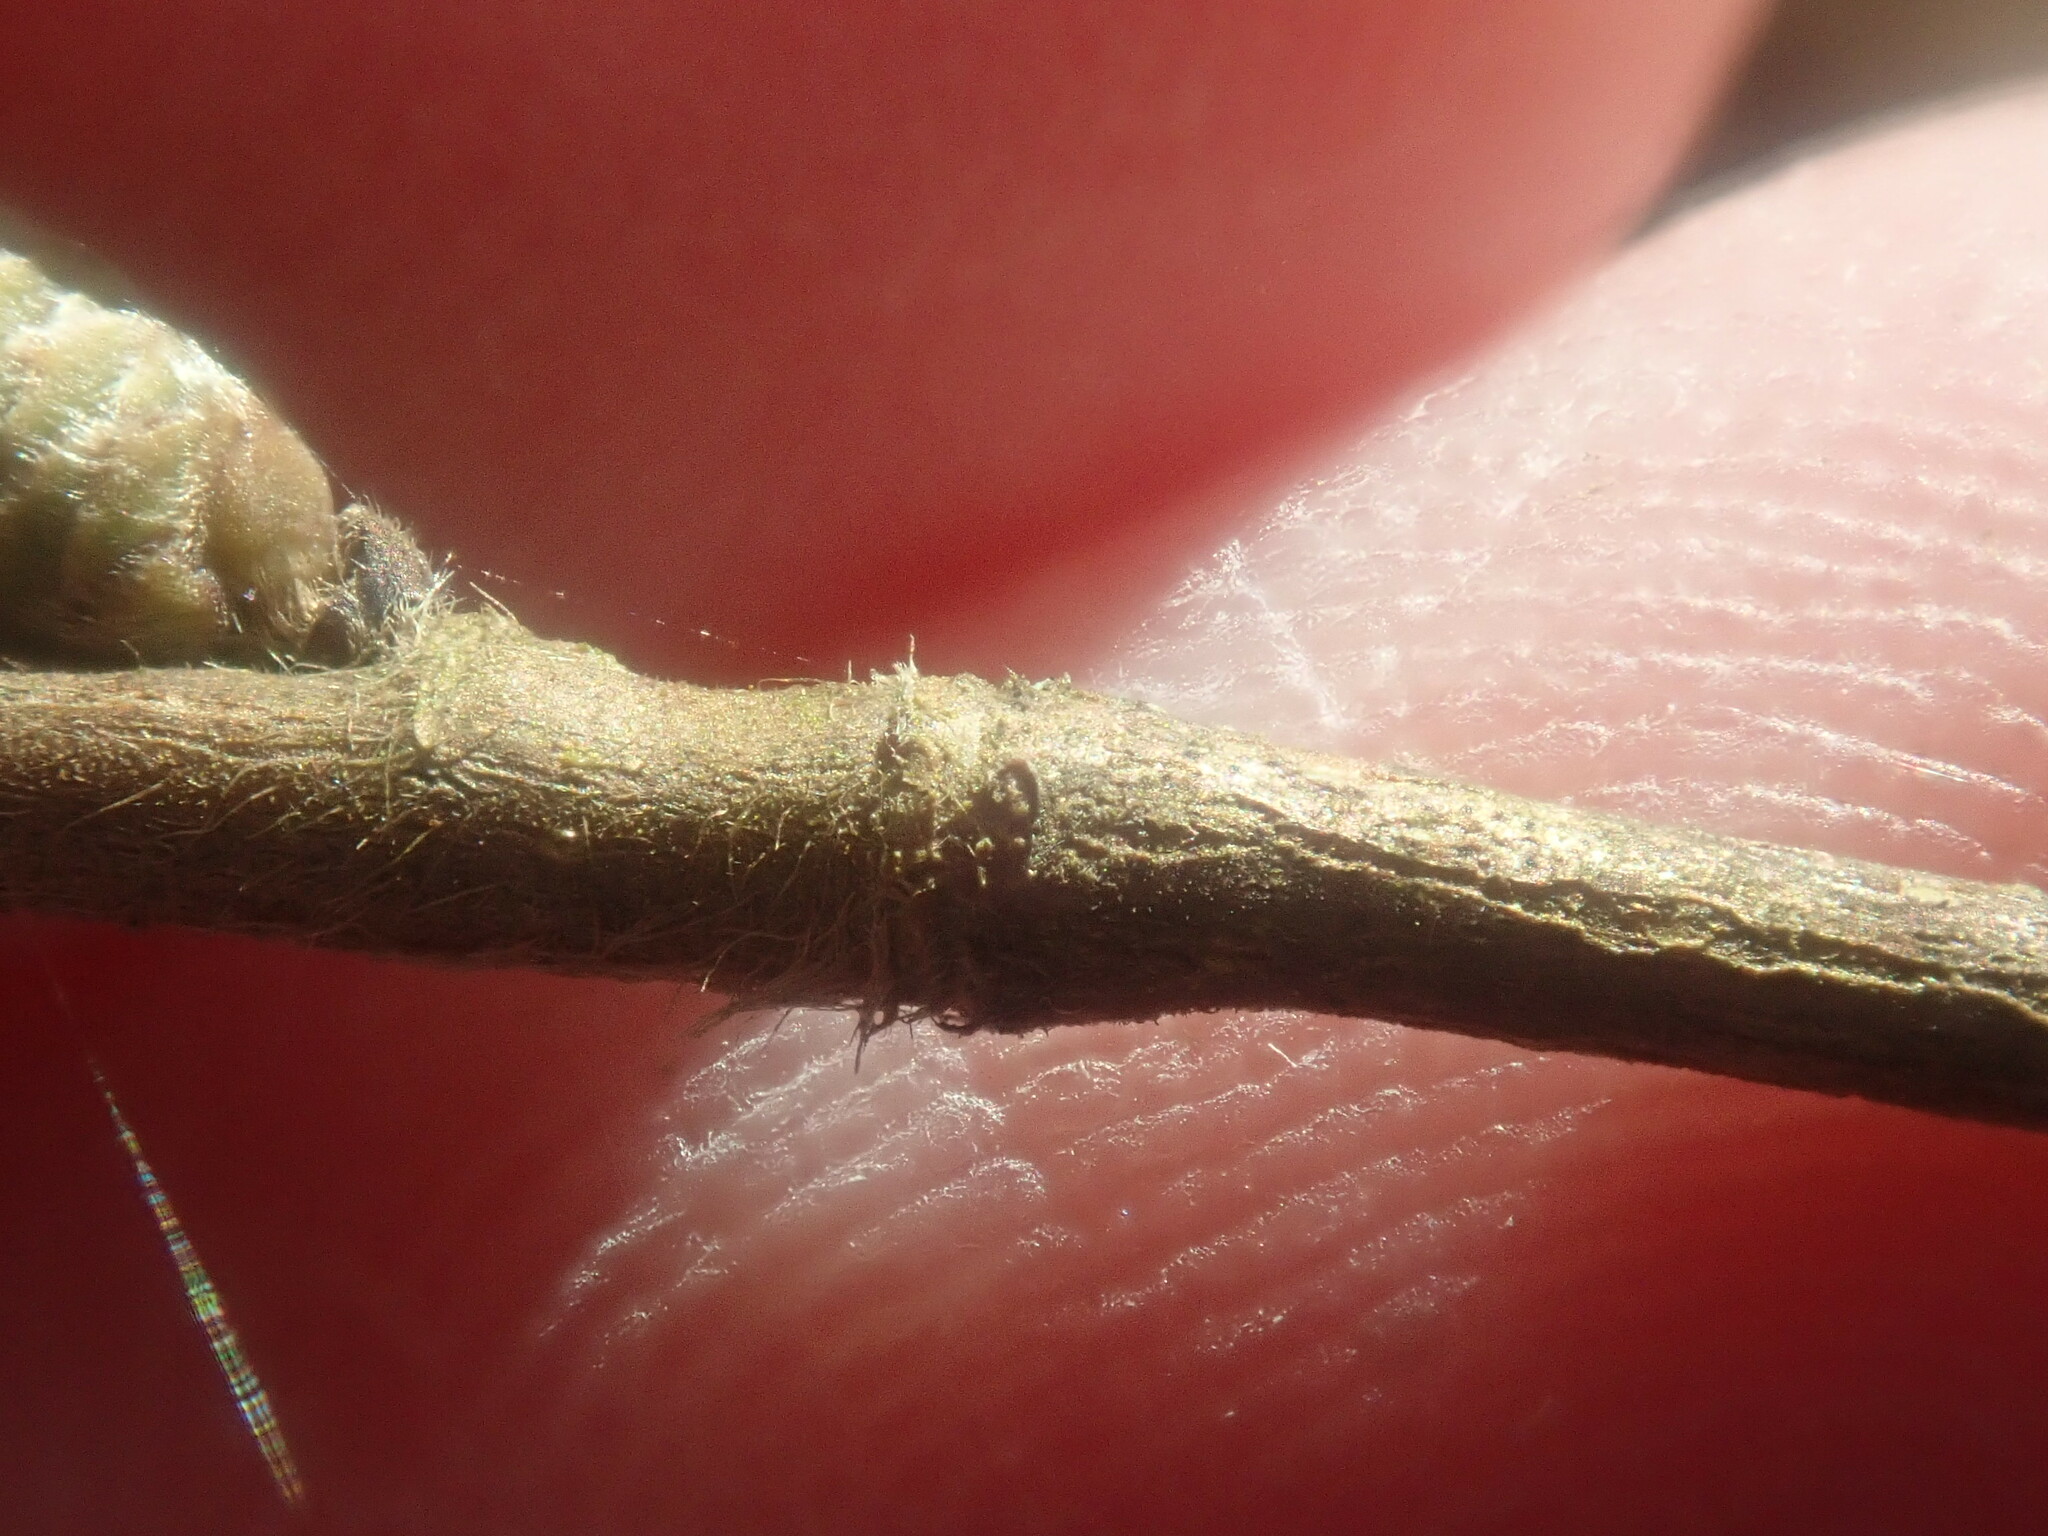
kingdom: Plantae
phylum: Tracheophyta
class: Magnoliopsida
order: Fagales
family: Betulaceae
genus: Corylus
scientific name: Corylus cornuta
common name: Beaked hazel
